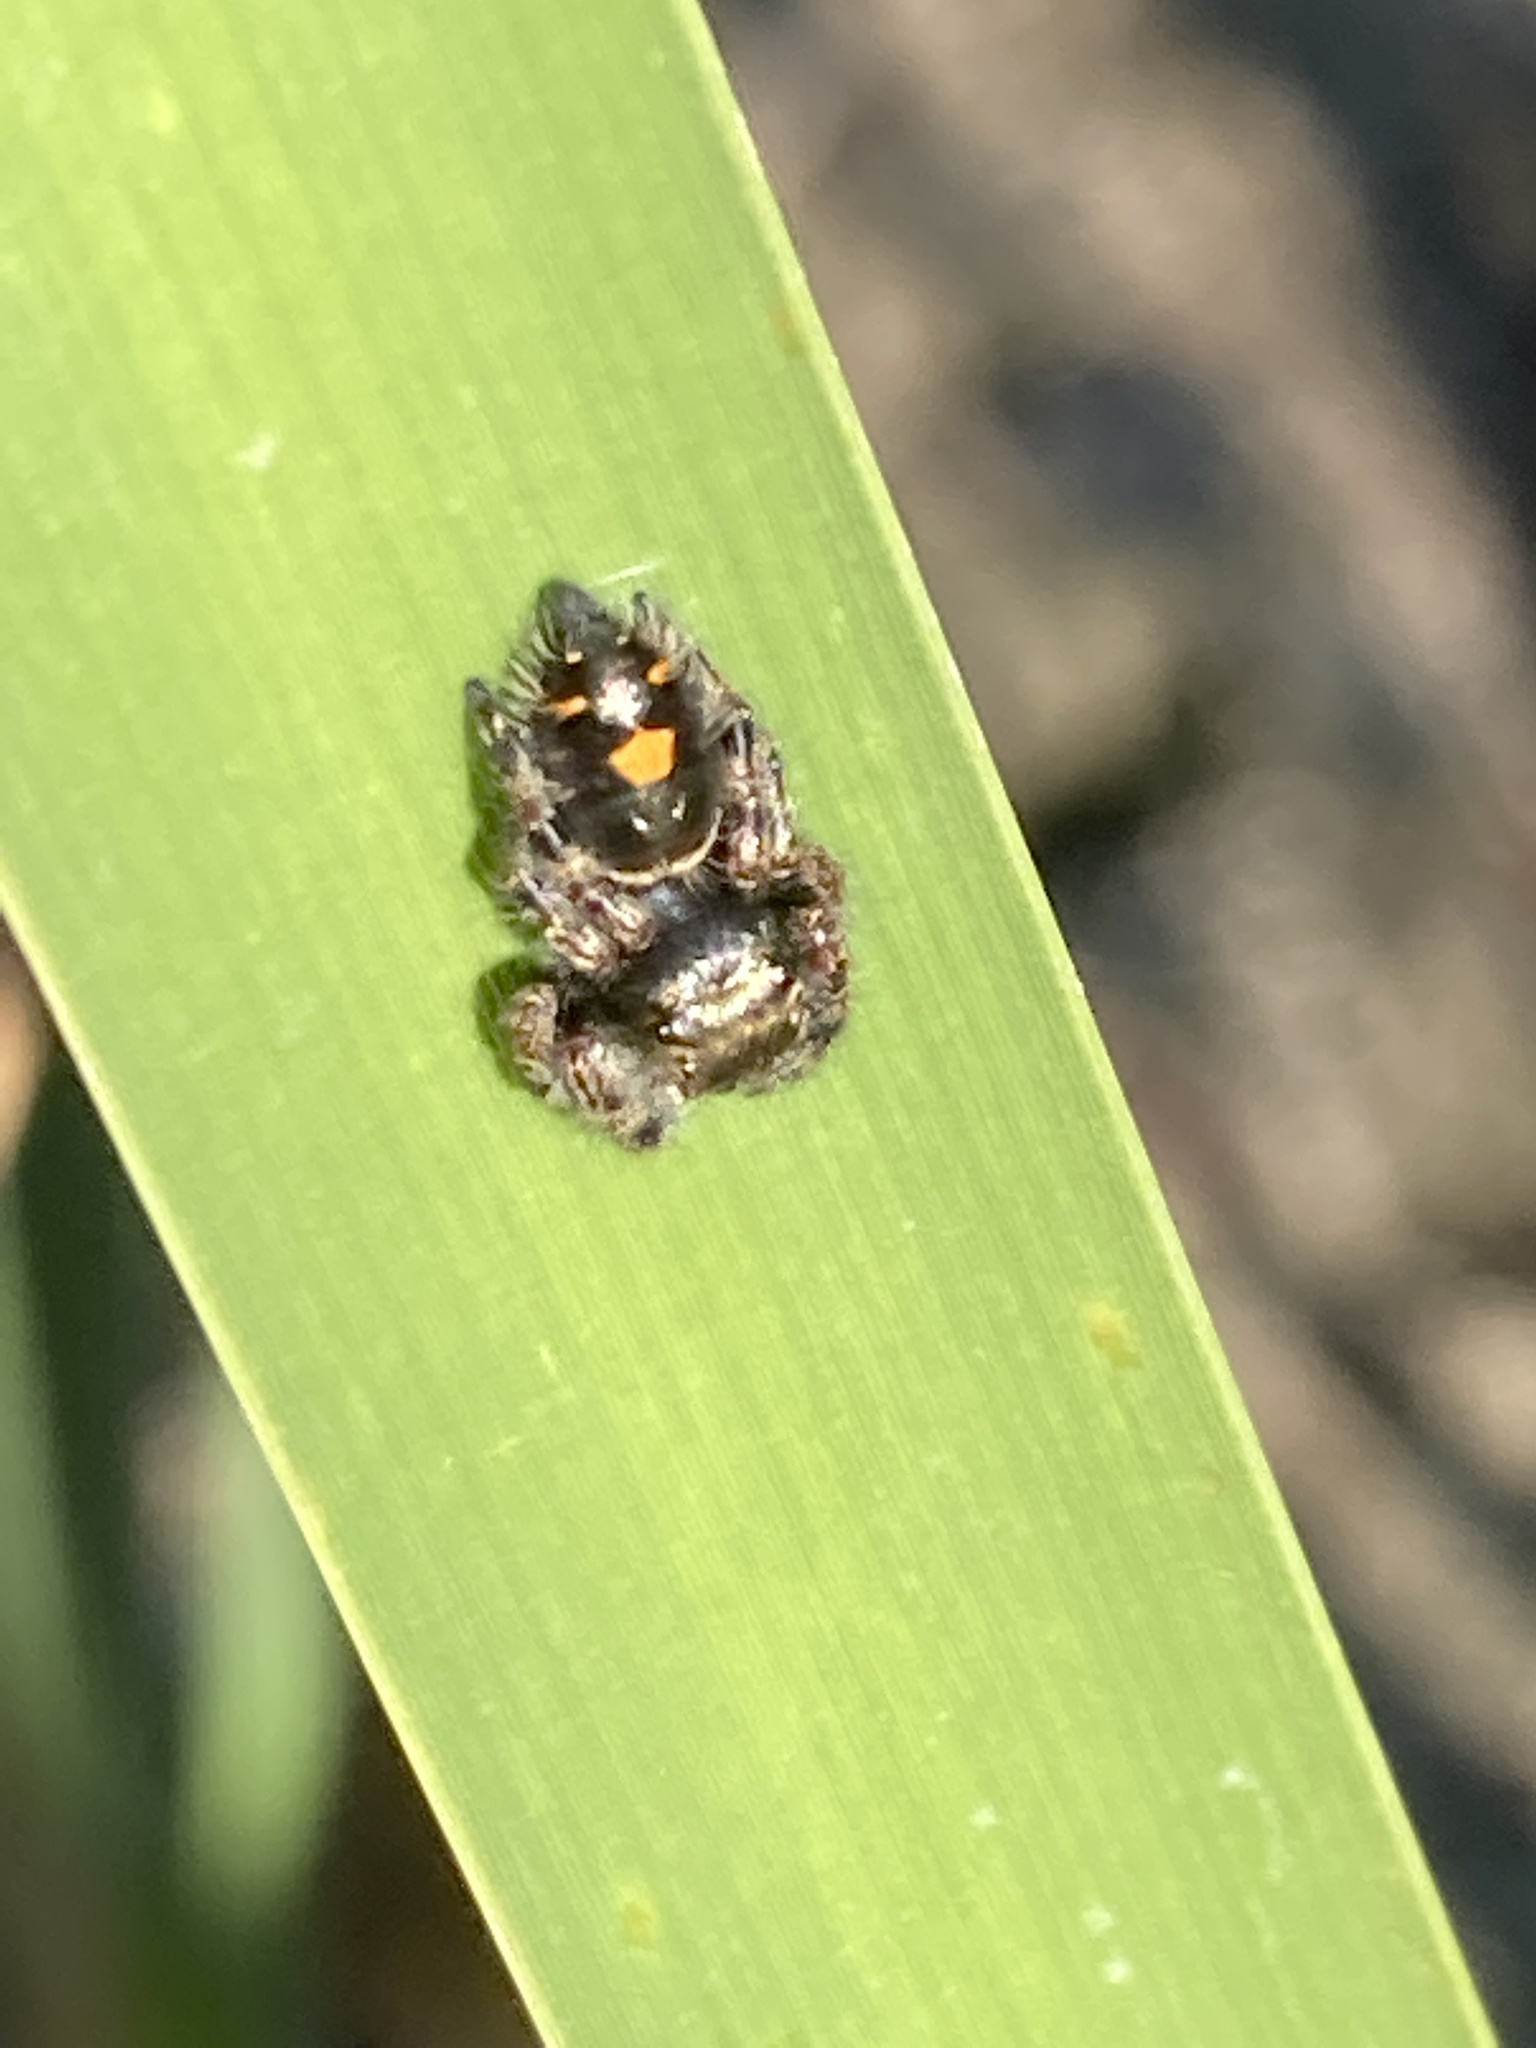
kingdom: Animalia
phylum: Arthropoda
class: Arachnida
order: Araneae
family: Salticidae
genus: Phidippus
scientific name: Phidippus audax
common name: Bold jumper
